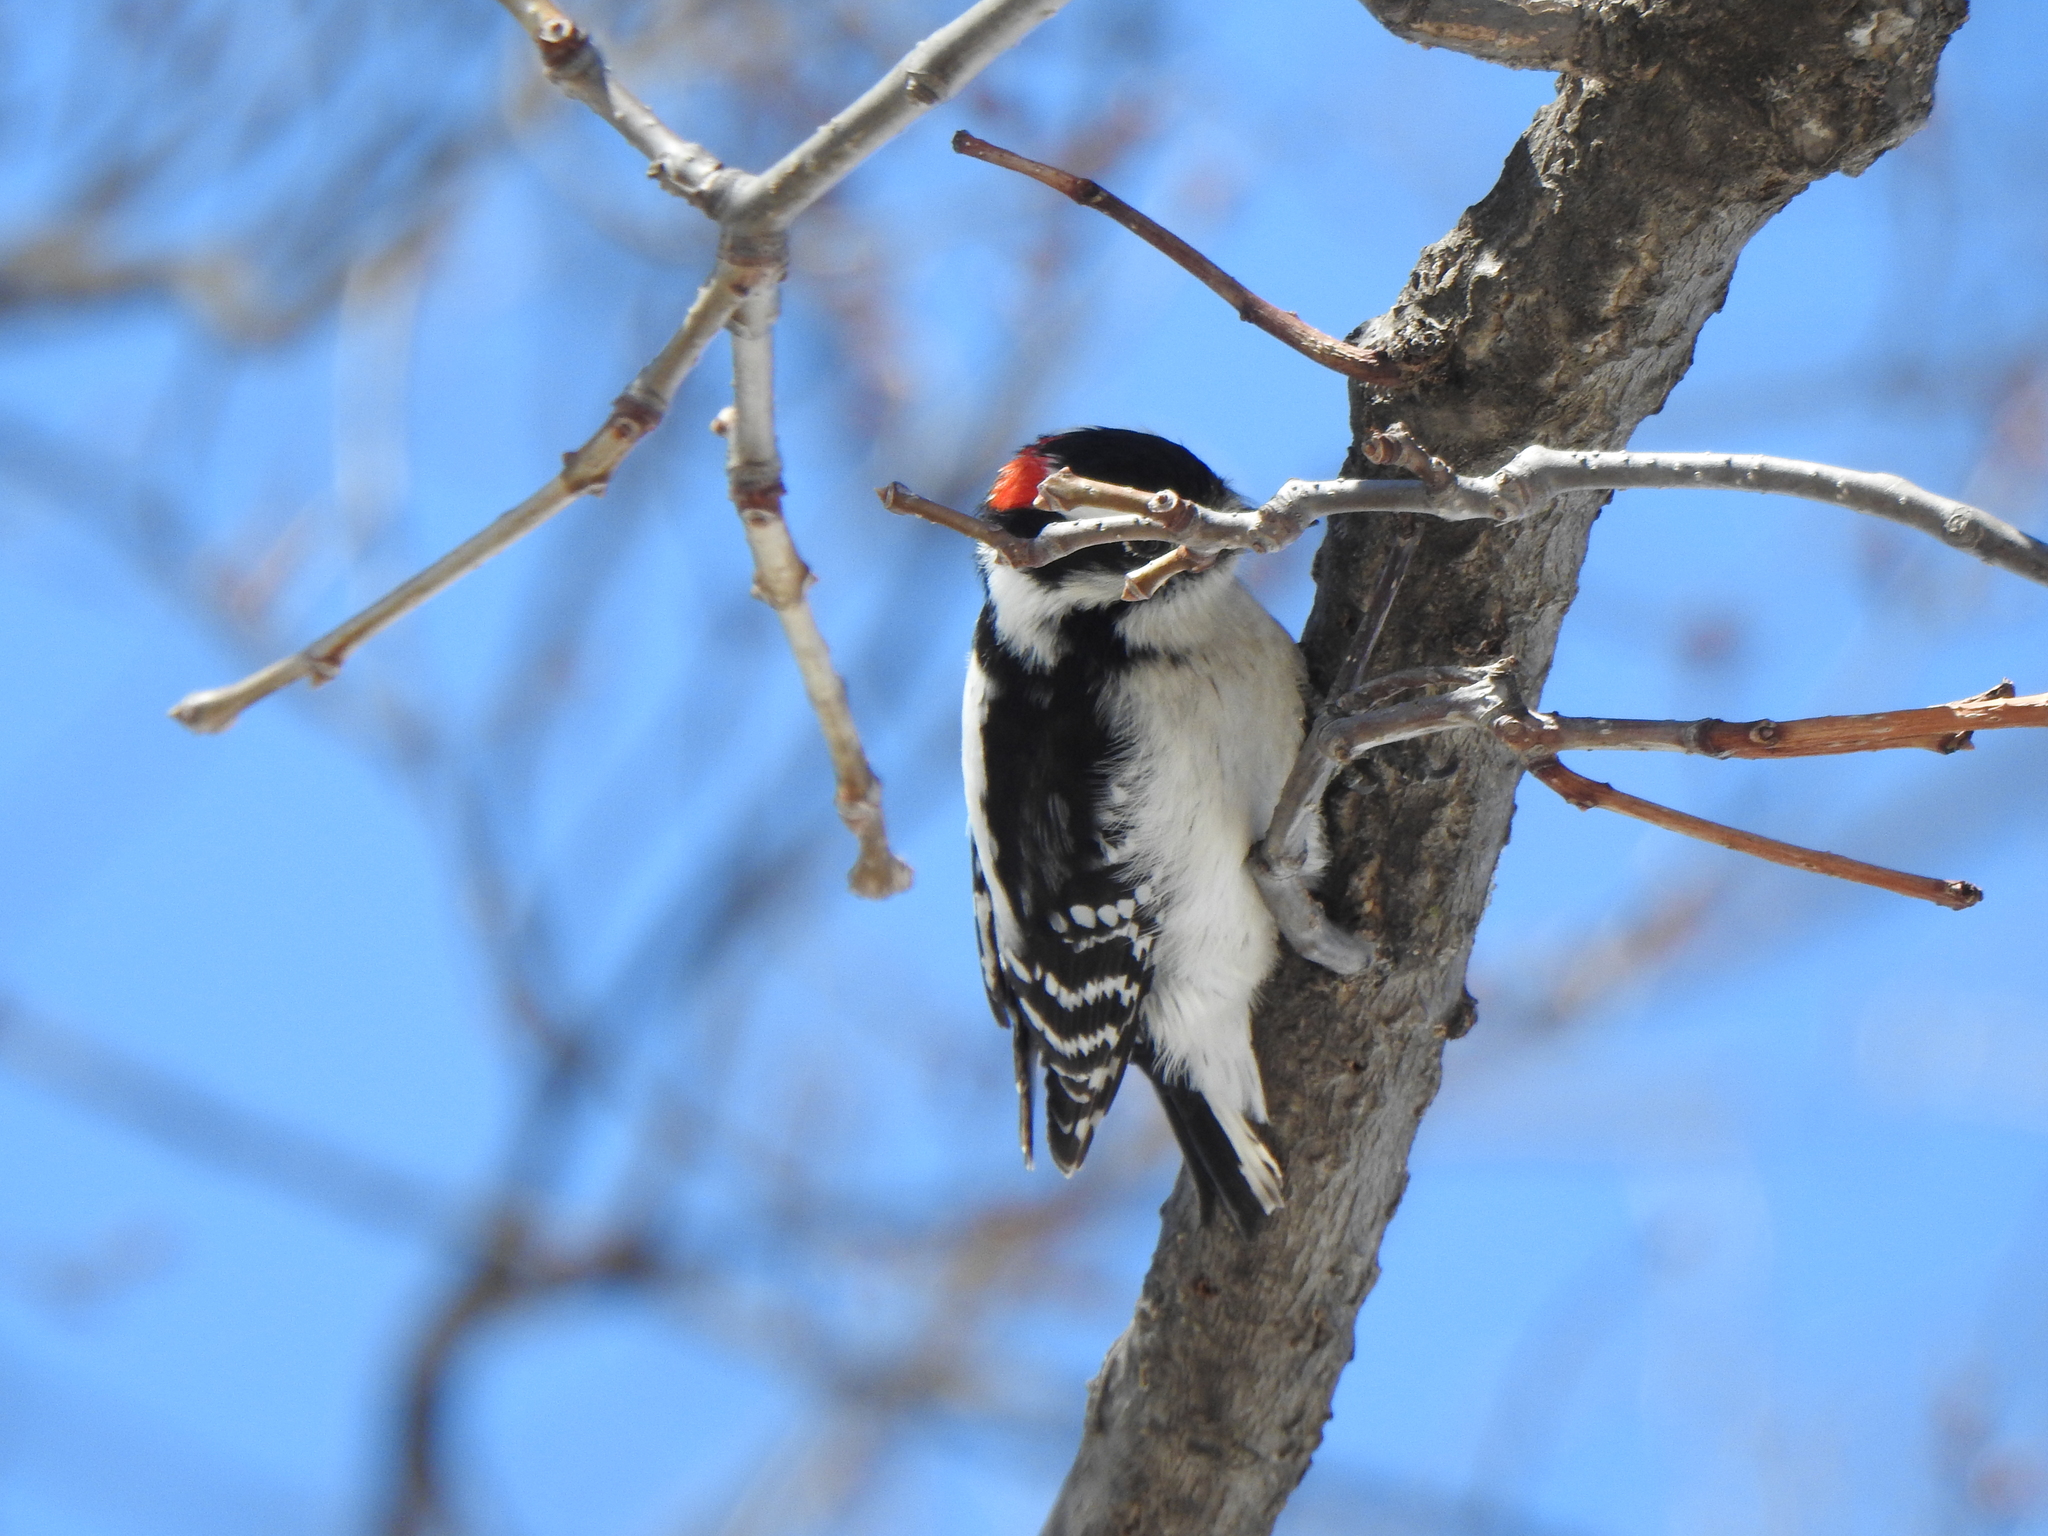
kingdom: Animalia
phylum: Chordata
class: Aves
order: Piciformes
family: Picidae
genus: Dryobates
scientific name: Dryobates pubescens
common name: Downy woodpecker
